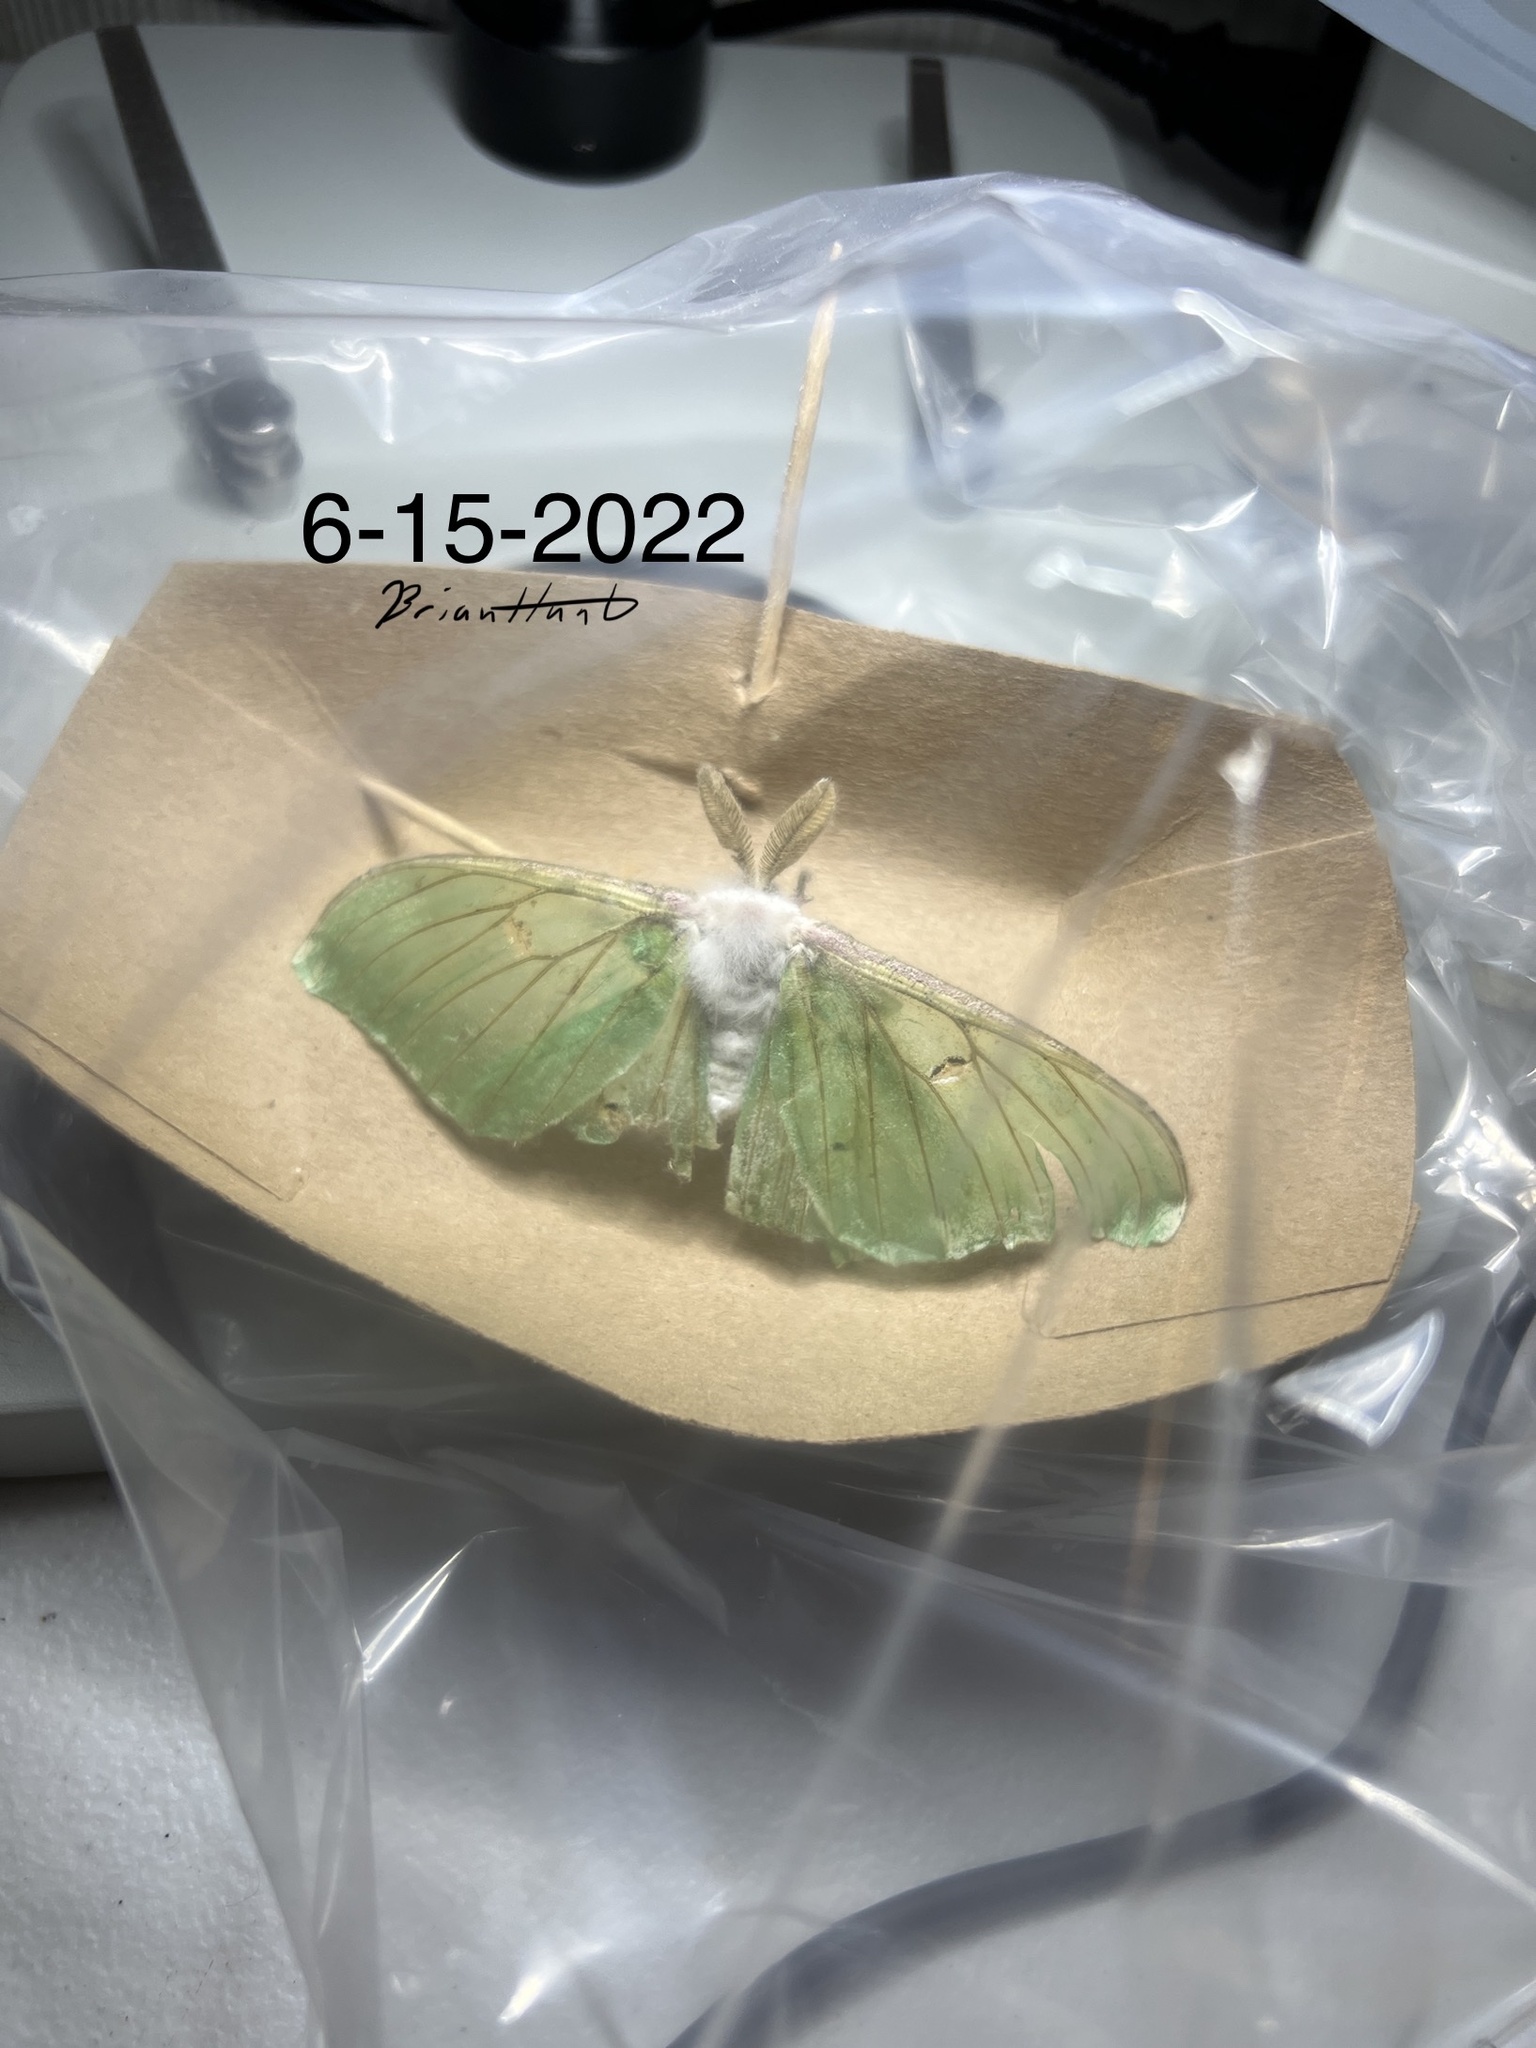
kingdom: Fungi
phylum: Ascomycota
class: Sordariomycetes
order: Hypocreales
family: Cordycipitaceae
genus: Beauveria
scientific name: Beauveria bassiana
